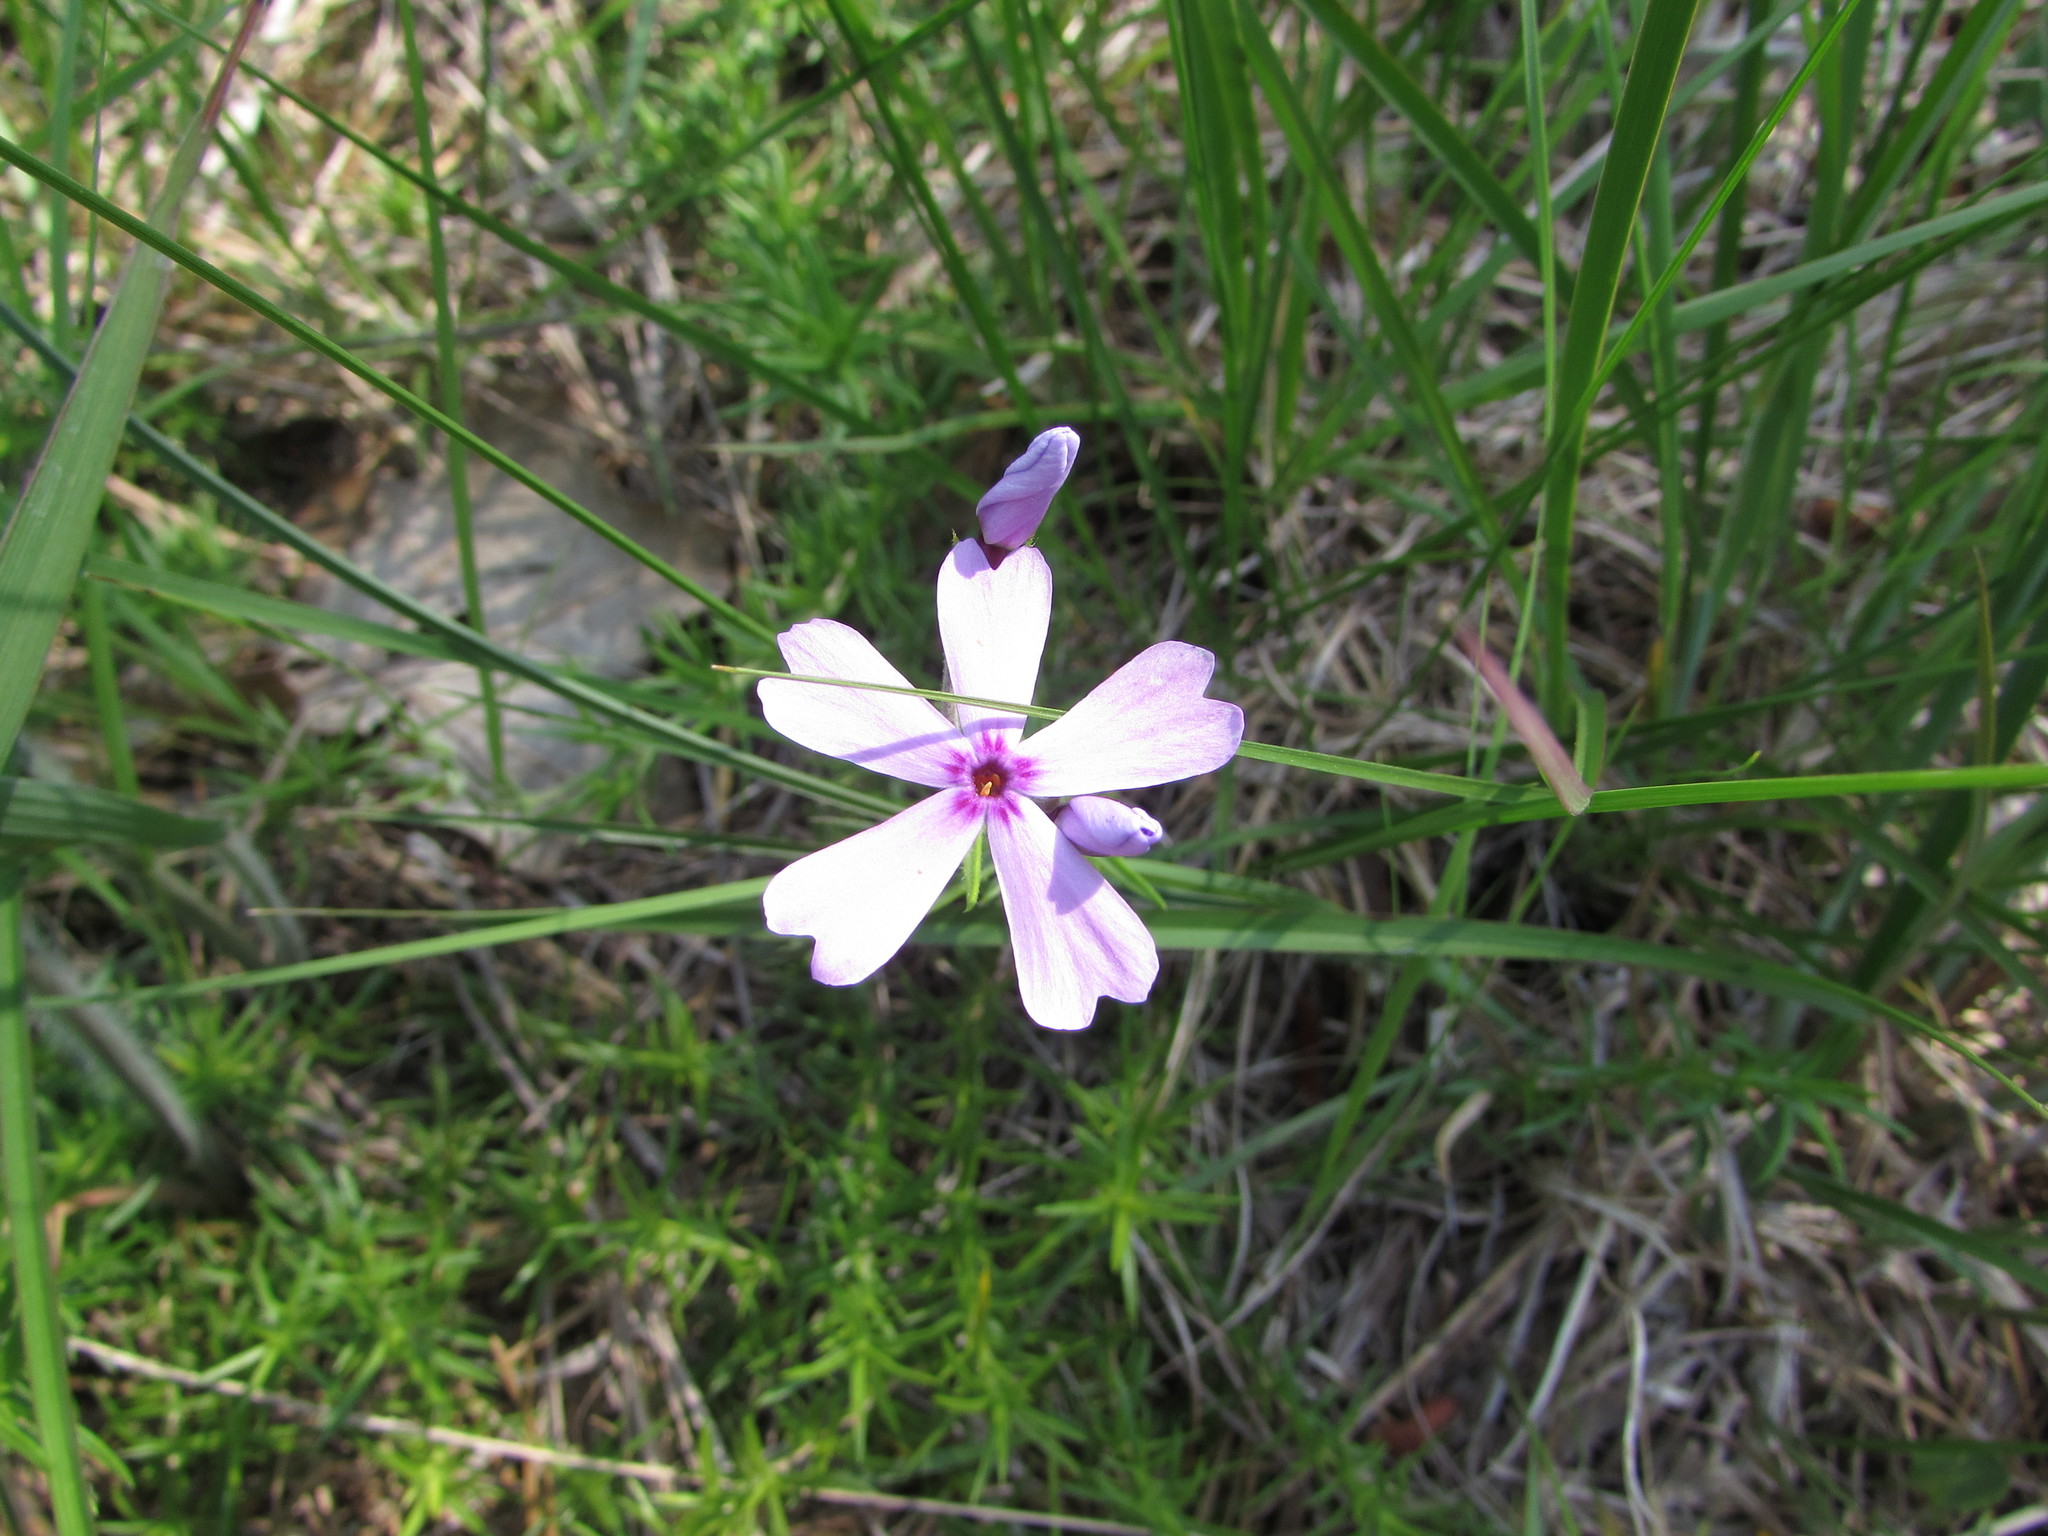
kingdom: Plantae
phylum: Tracheophyta
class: Magnoliopsida
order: Ericales
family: Polemoniaceae
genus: Phlox
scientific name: Phlox subulata
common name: Moss phlox
